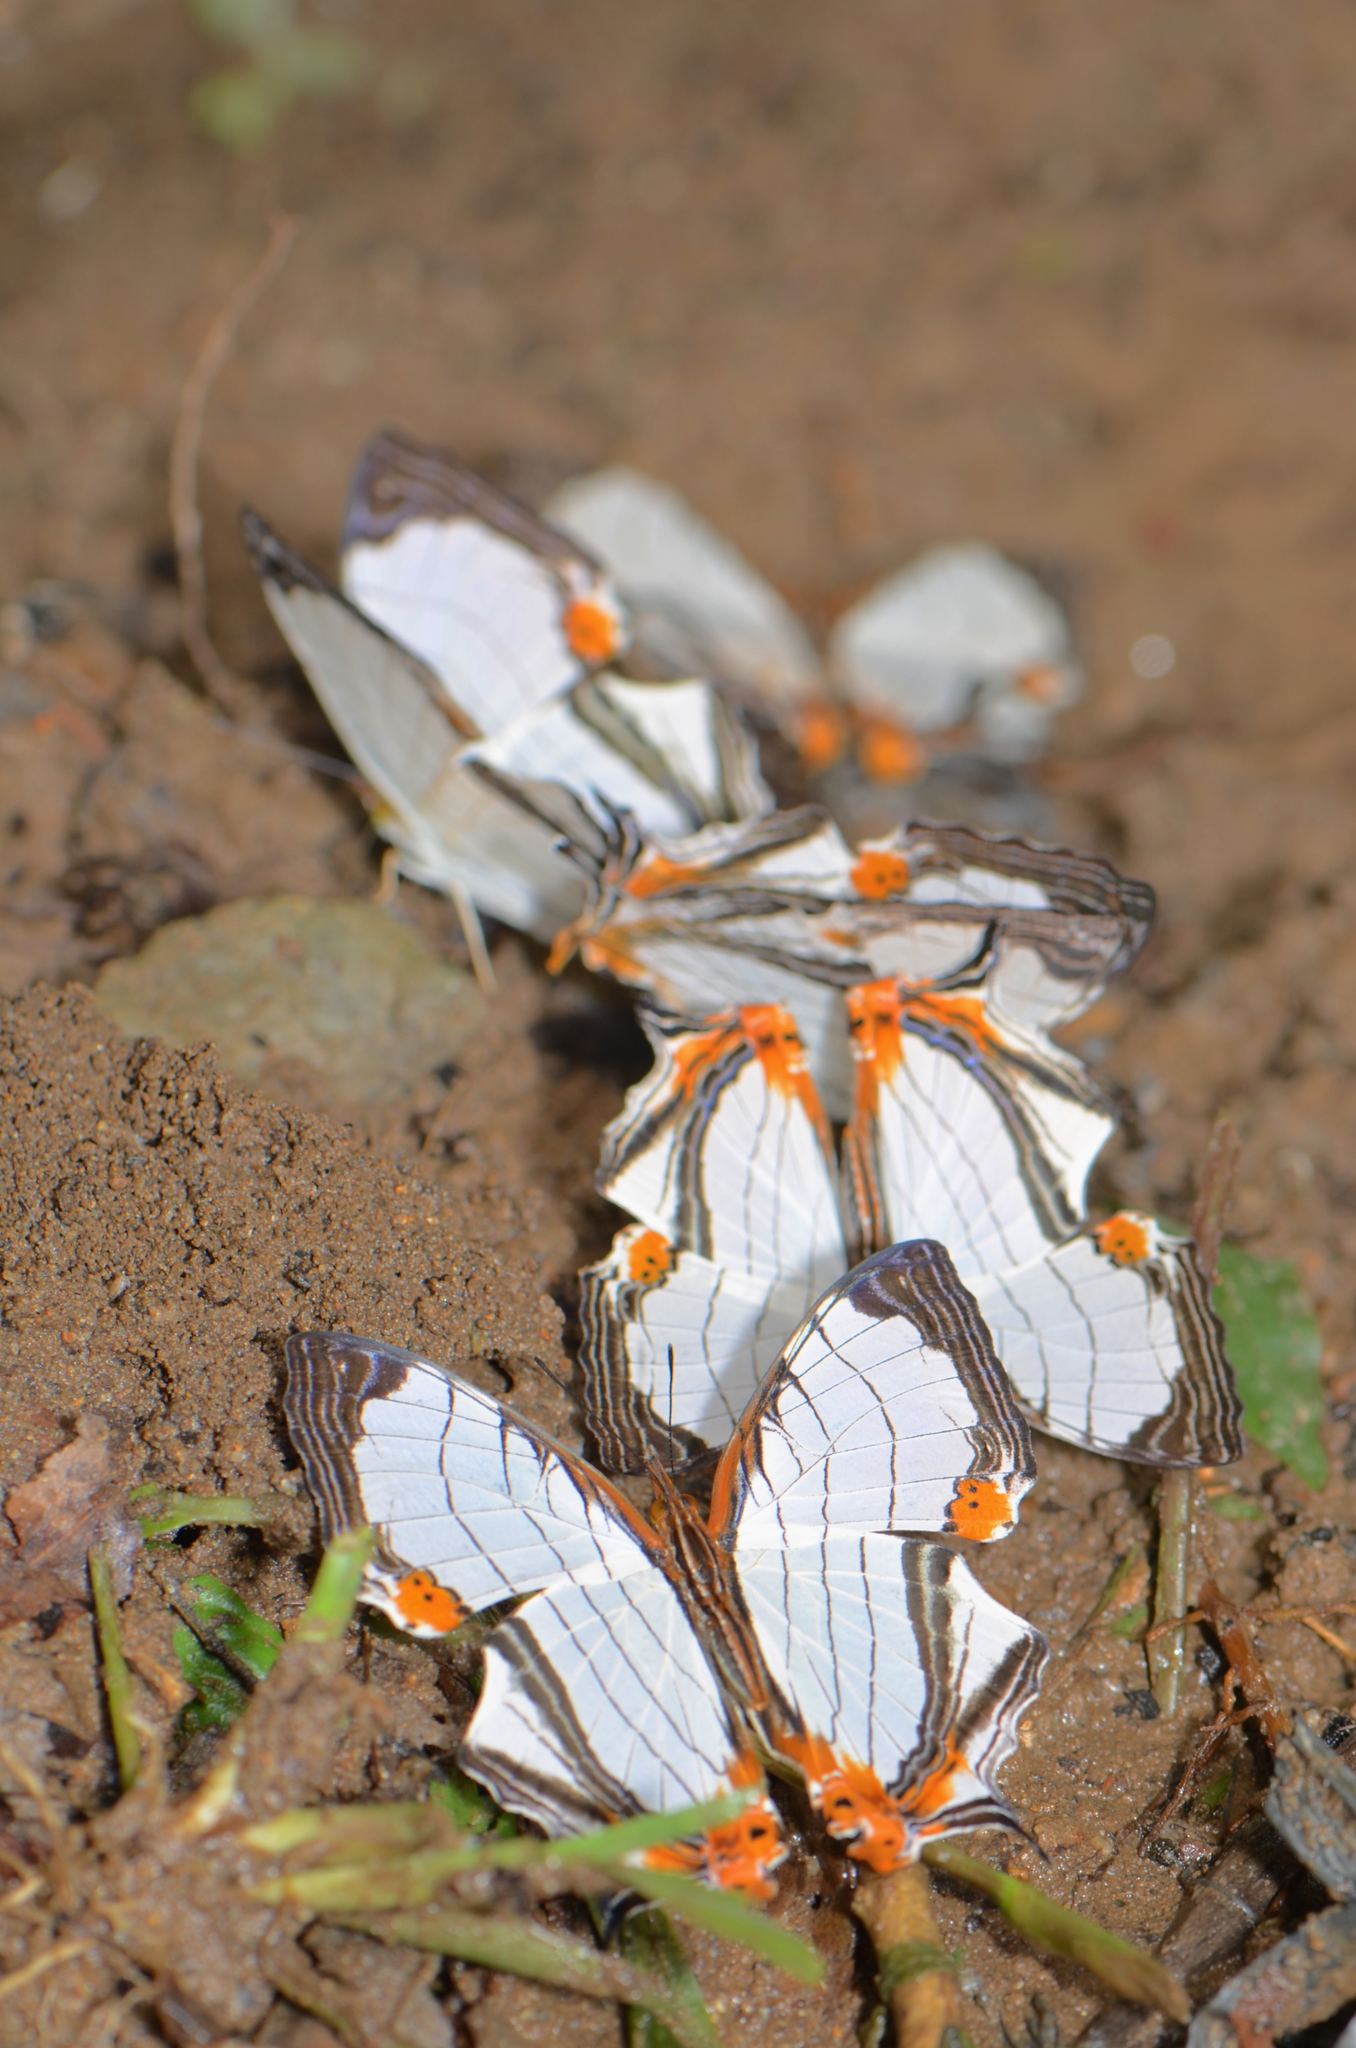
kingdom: Animalia
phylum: Arthropoda
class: Insecta
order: Lepidoptera
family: Nymphalidae
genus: Cyrestis
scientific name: Cyrestis nivea
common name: Straight line mapwing
